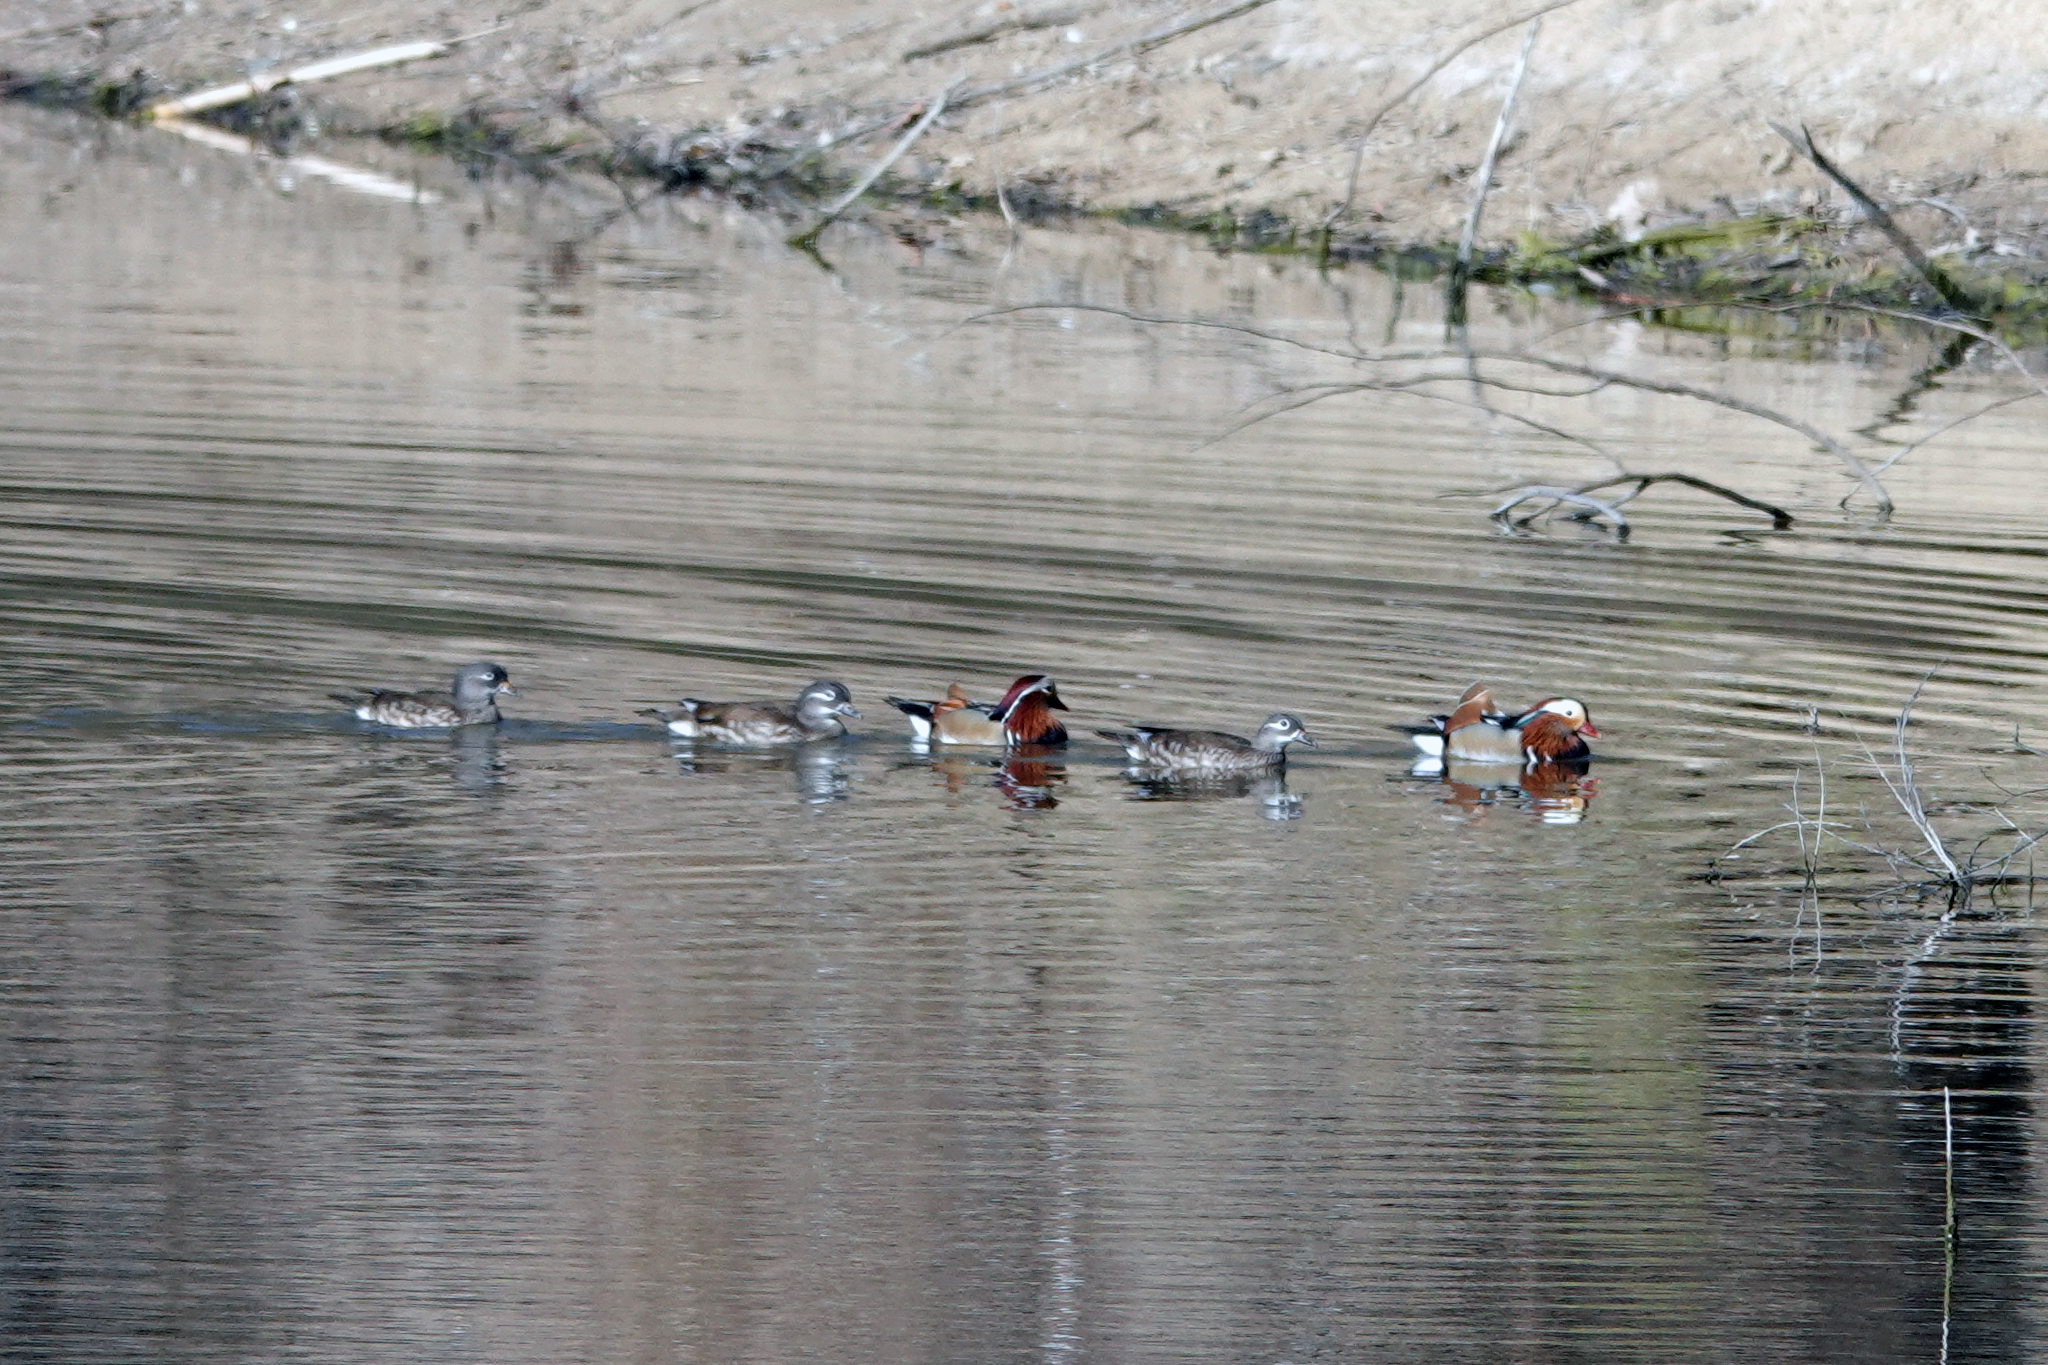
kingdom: Animalia
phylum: Chordata
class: Aves
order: Anseriformes
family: Anatidae
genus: Aix
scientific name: Aix galericulata
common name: Mandarin duck
